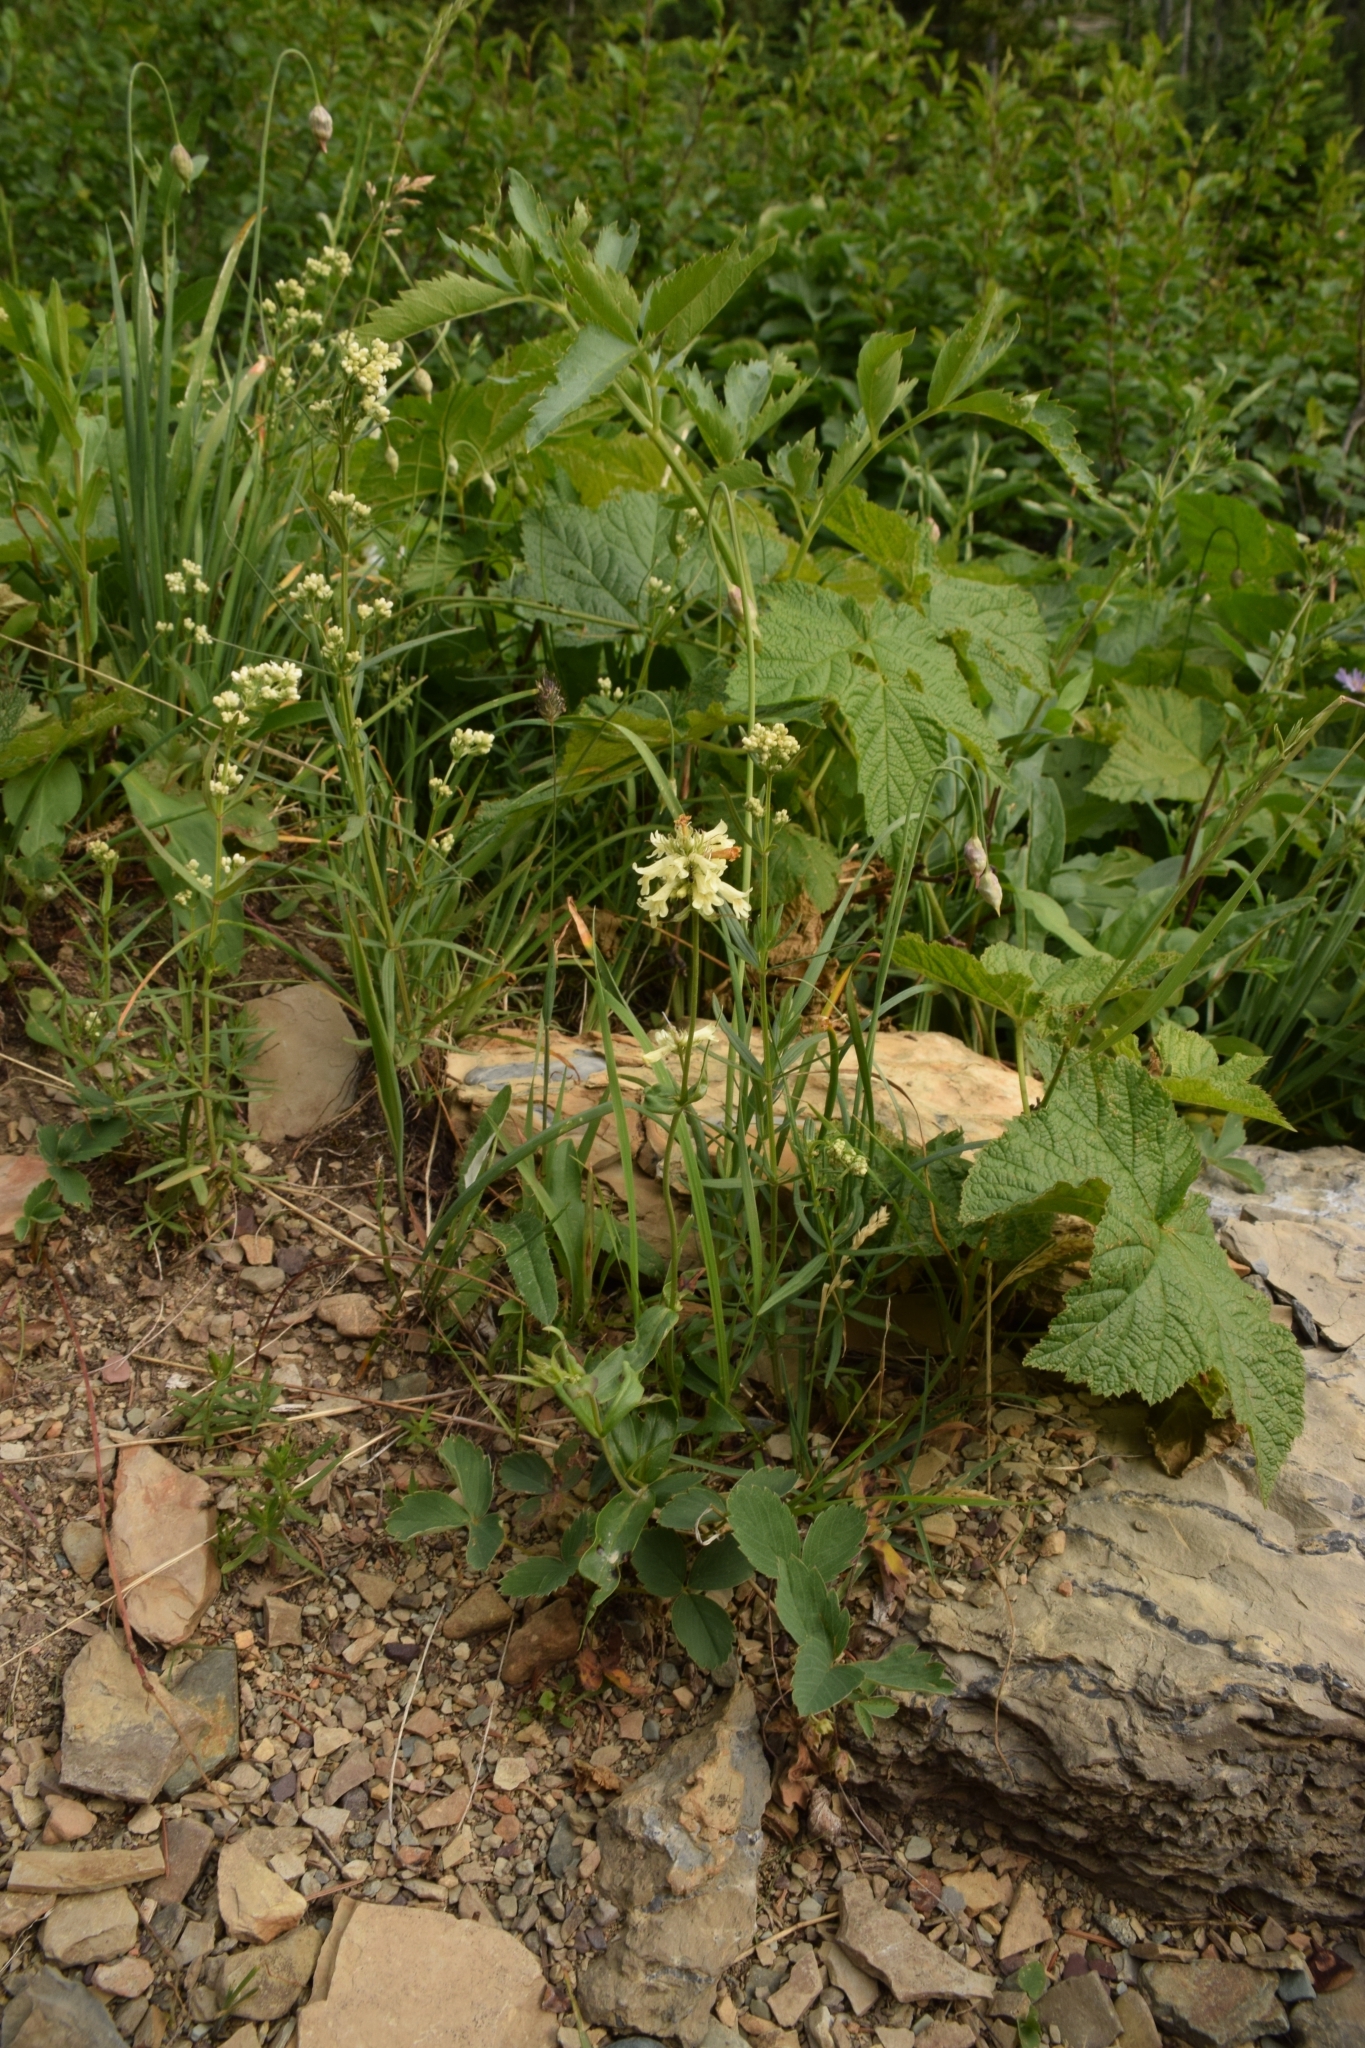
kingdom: Plantae
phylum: Tracheophyta
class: Magnoliopsida
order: Lamiales
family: Plantaginaceae
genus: Penstemon
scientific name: Penstemon confertus
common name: Lesser yellow beardtongue
